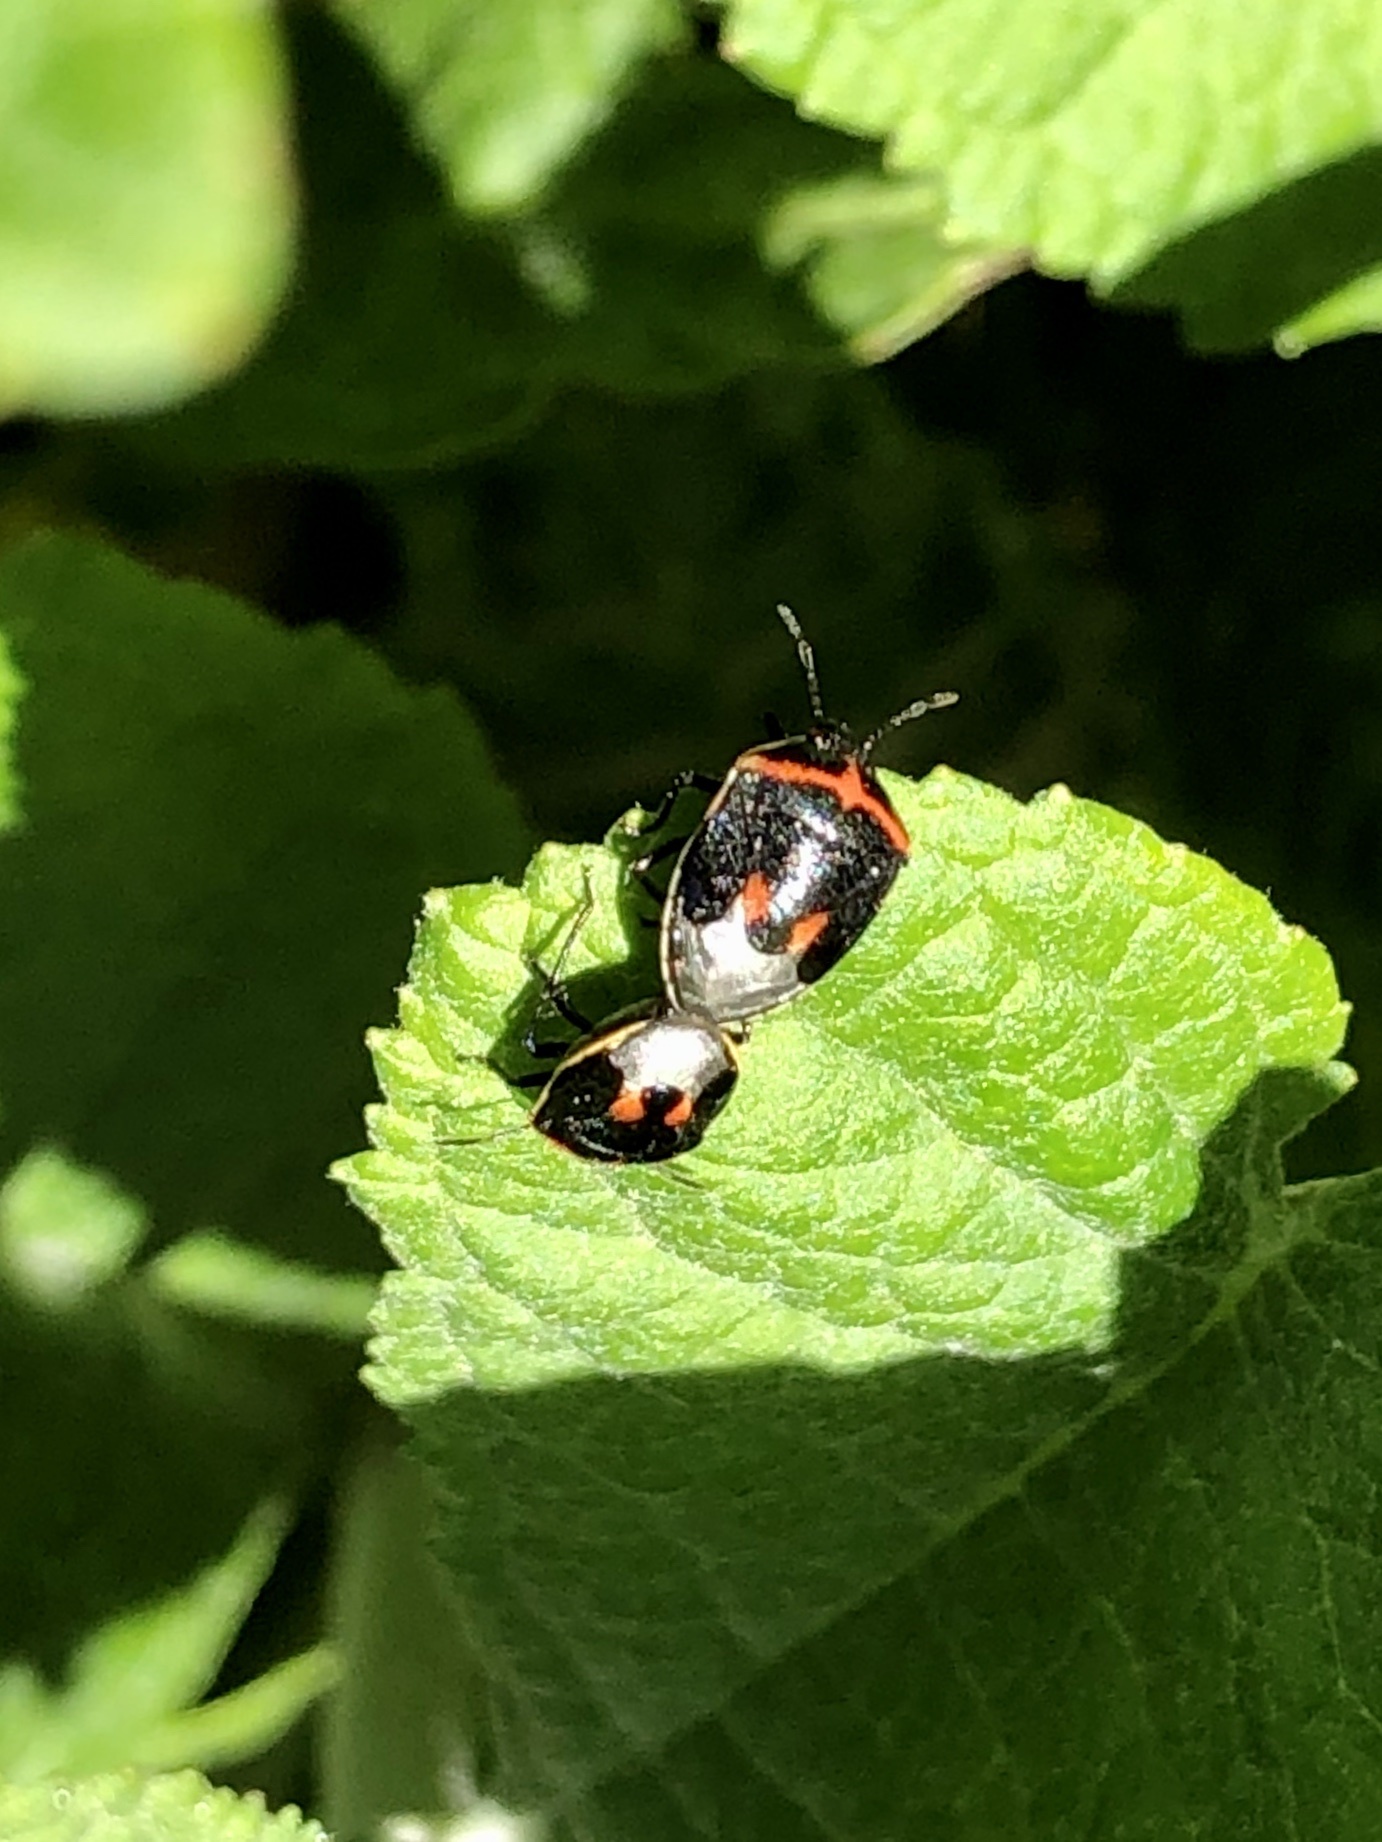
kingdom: Animalia
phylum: Arthropoda
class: Insecta
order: Hemiptera
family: Pentatomidae
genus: Cosmopepla
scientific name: Cosmopepla lintneriana
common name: Twice-stabbed stink bug
